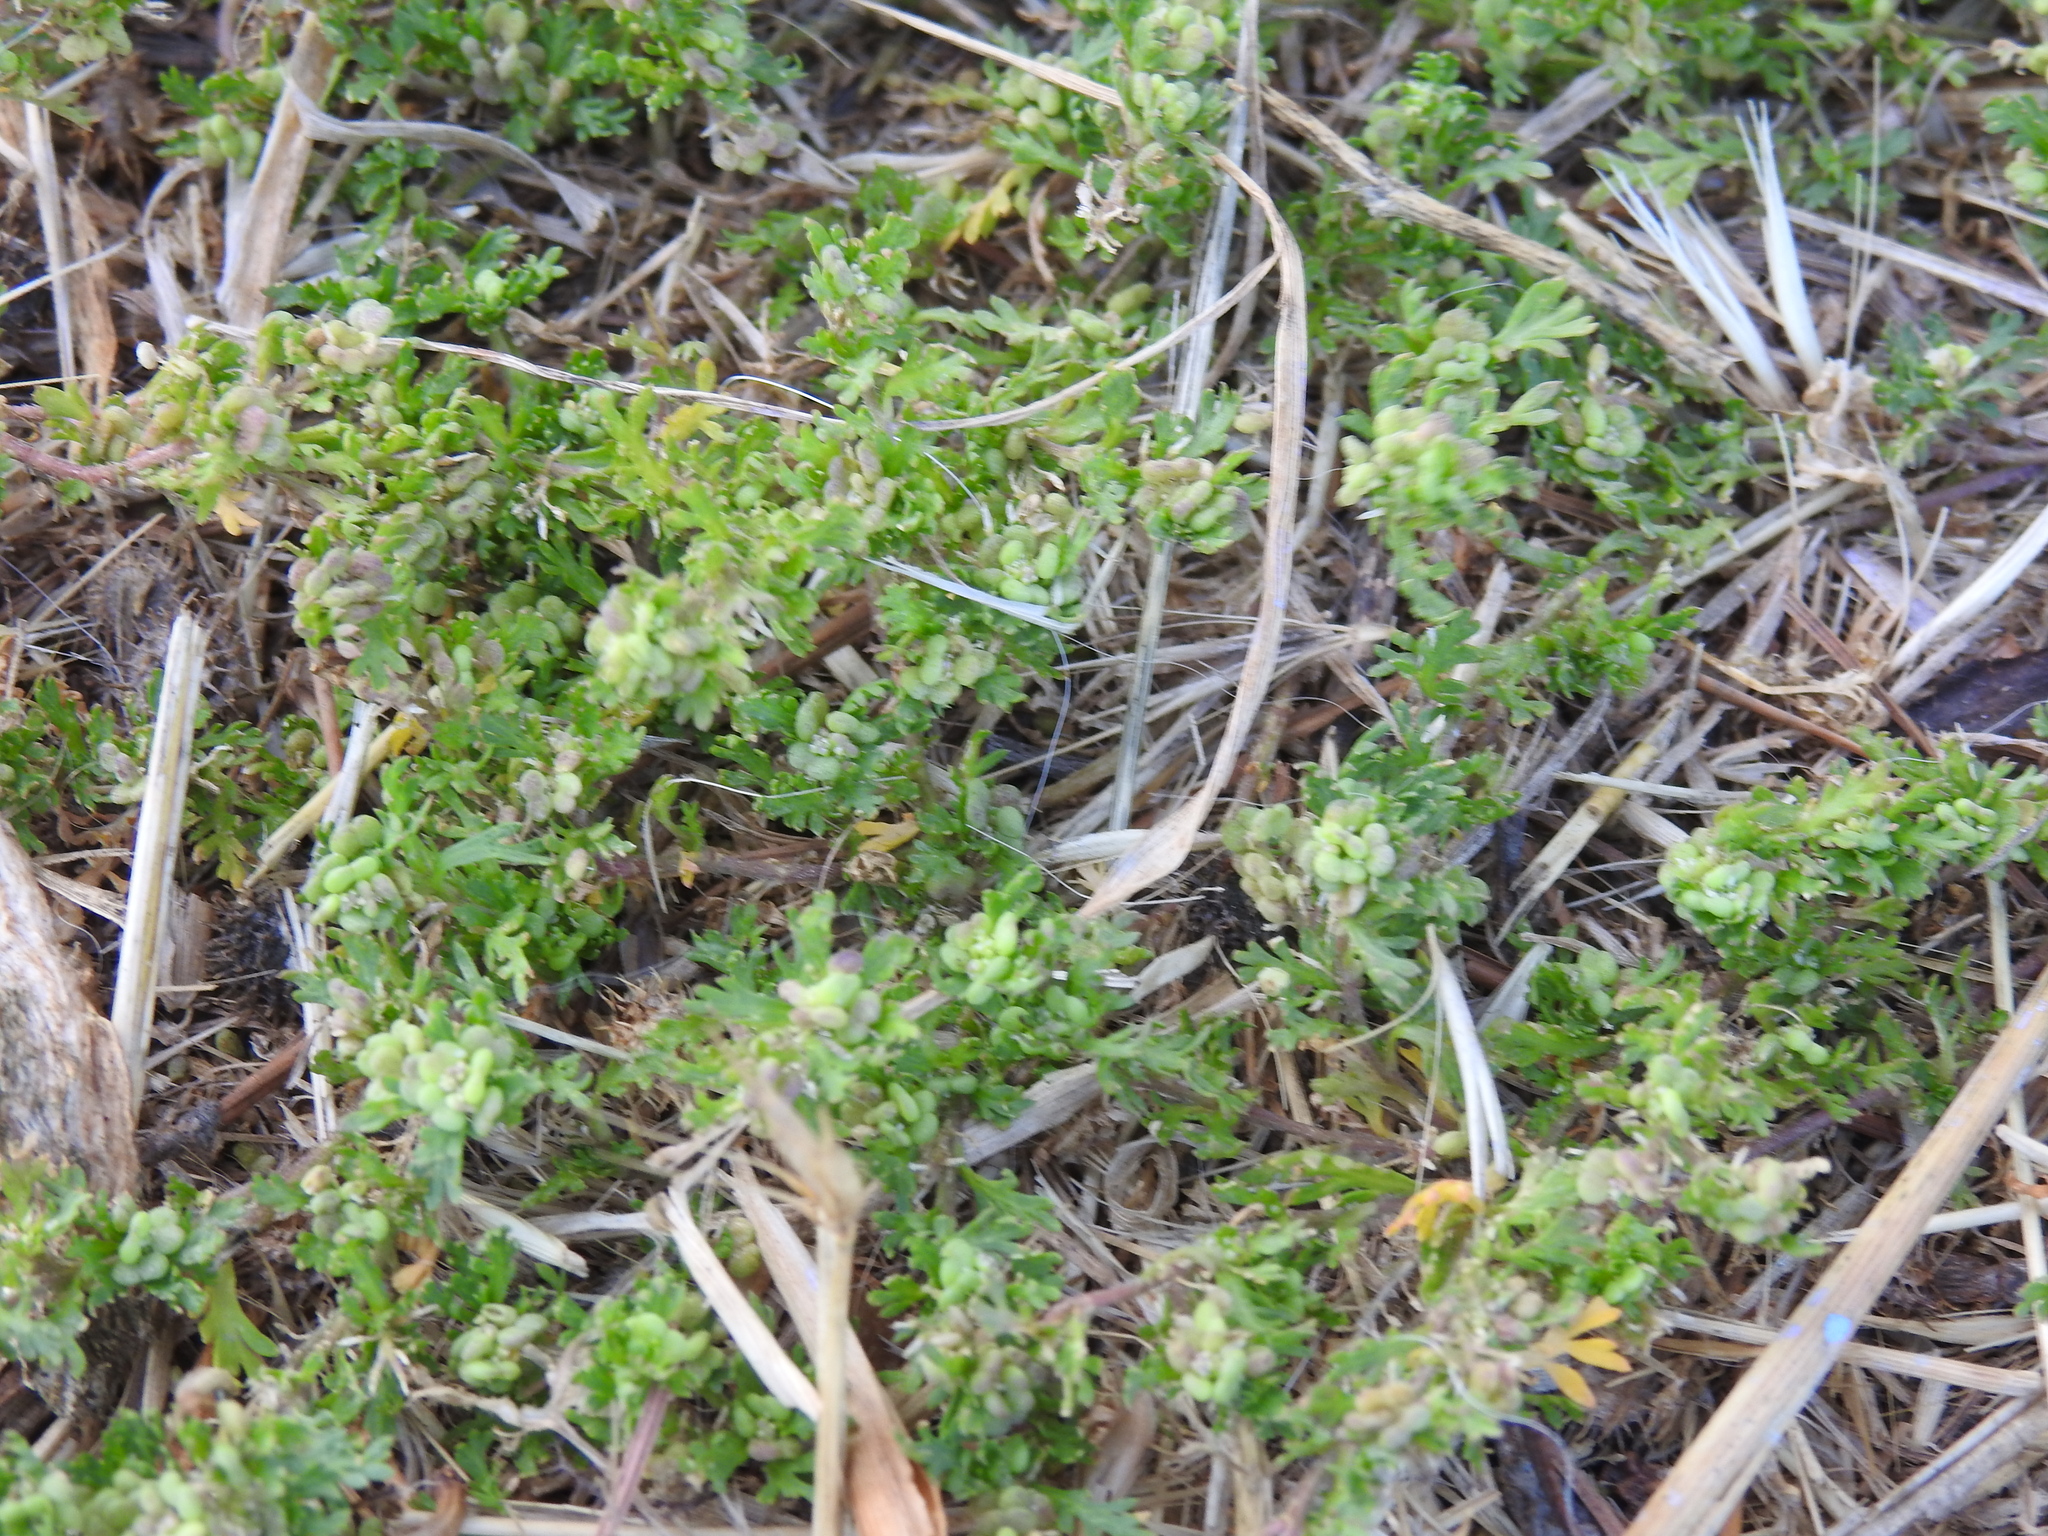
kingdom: Plantae
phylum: Tracheophyta
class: Magnoliopsida
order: Brassicales
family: Brassicaceae
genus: Lepidium
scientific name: Lepidium didymum
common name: Lesser swinecress
